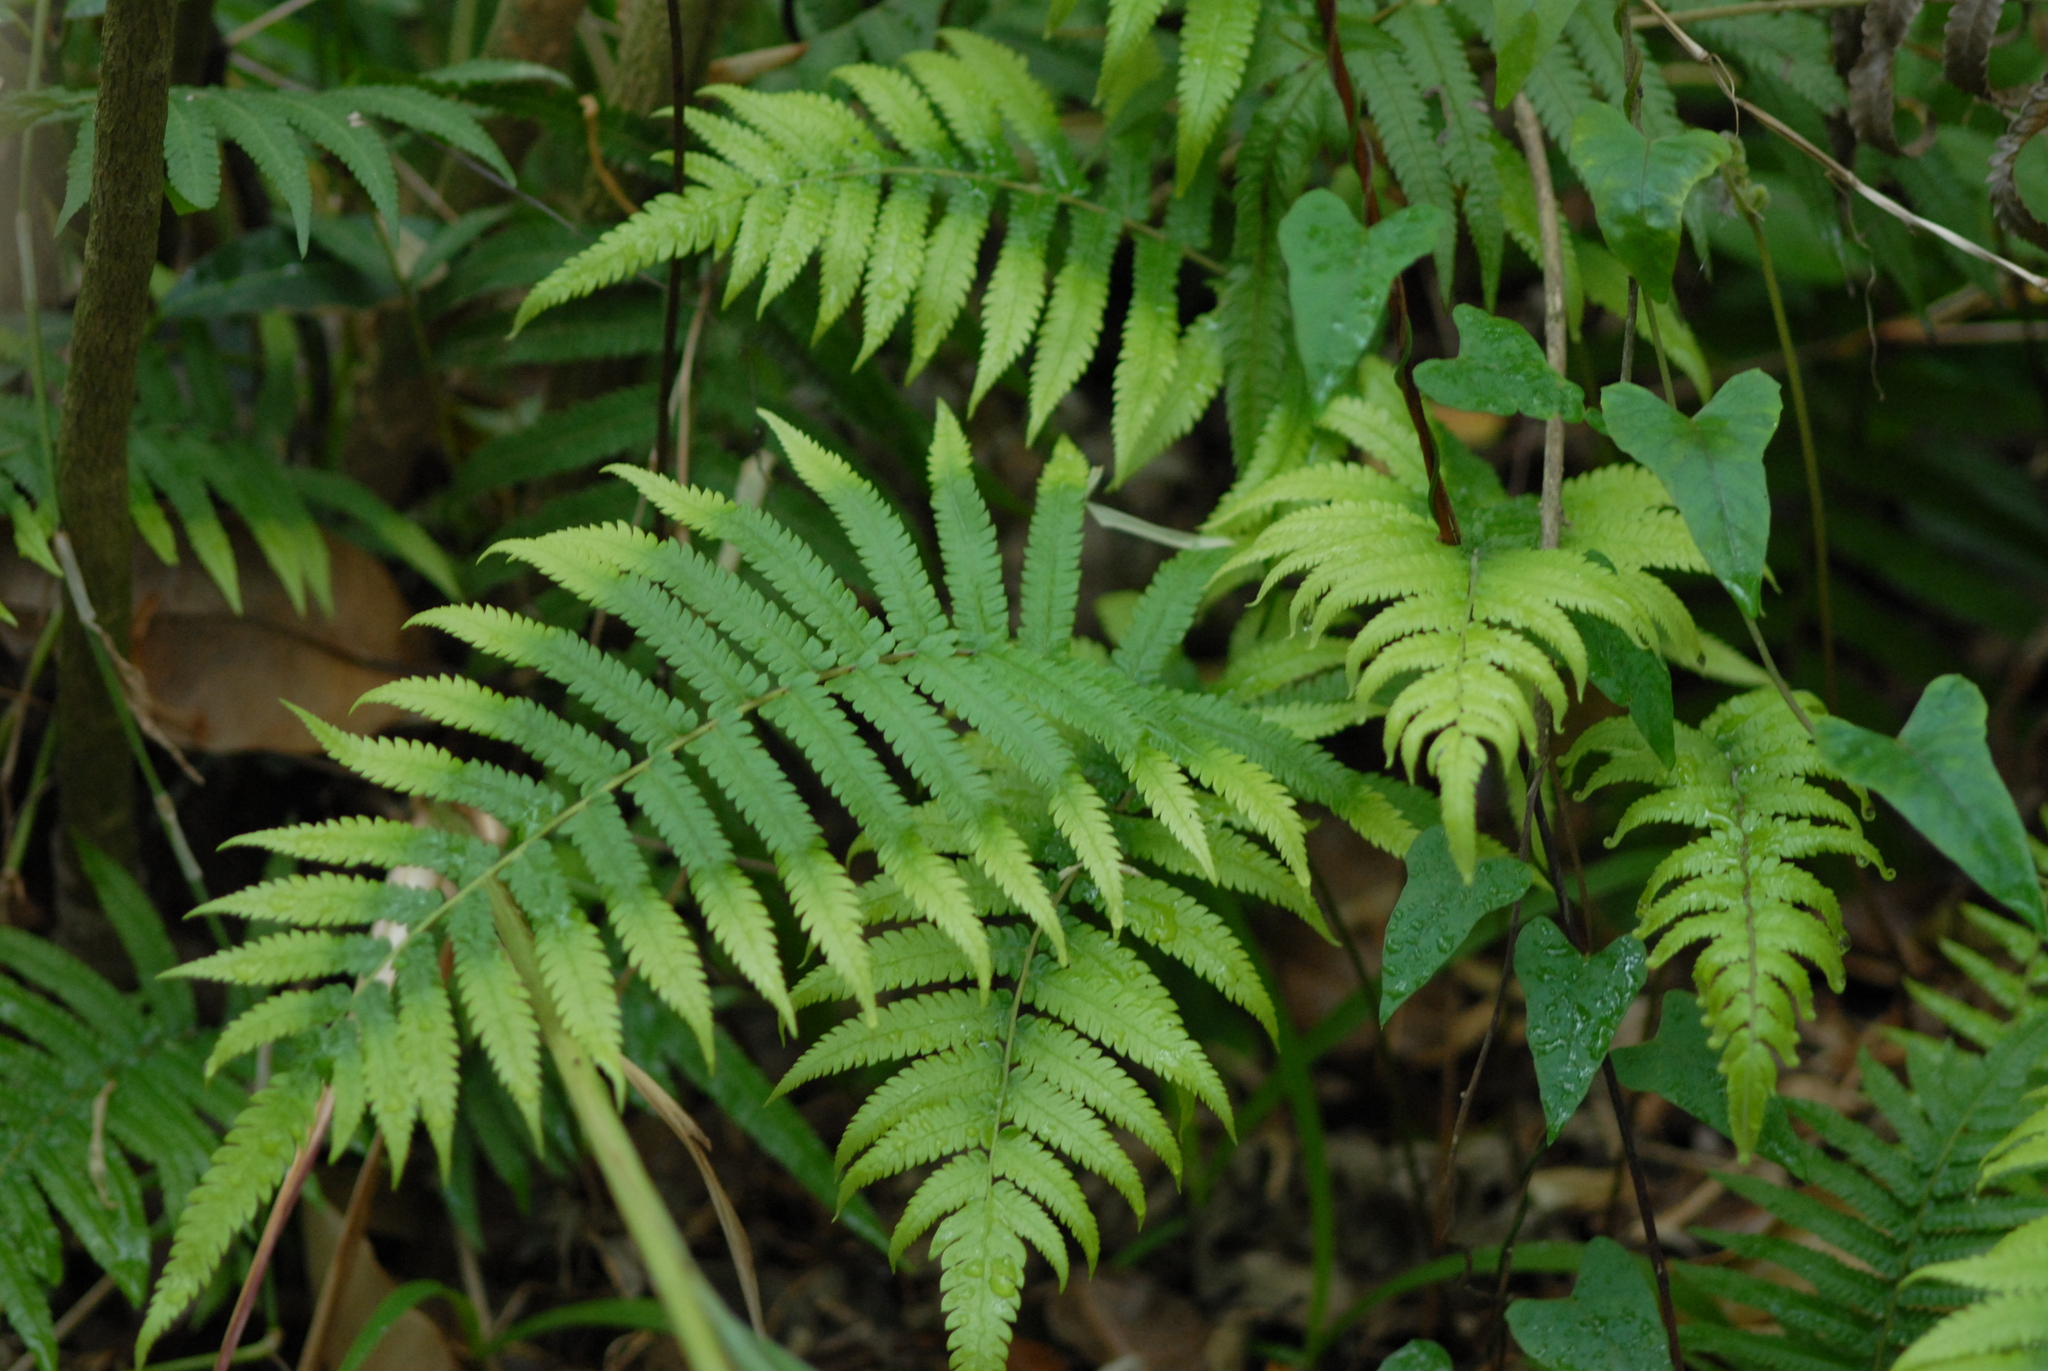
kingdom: Plantae
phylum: Tracheophyta
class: Polypodiopsida
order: Polypodiales
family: Thelypteridaceae
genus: Christella
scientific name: Christella parasitica
